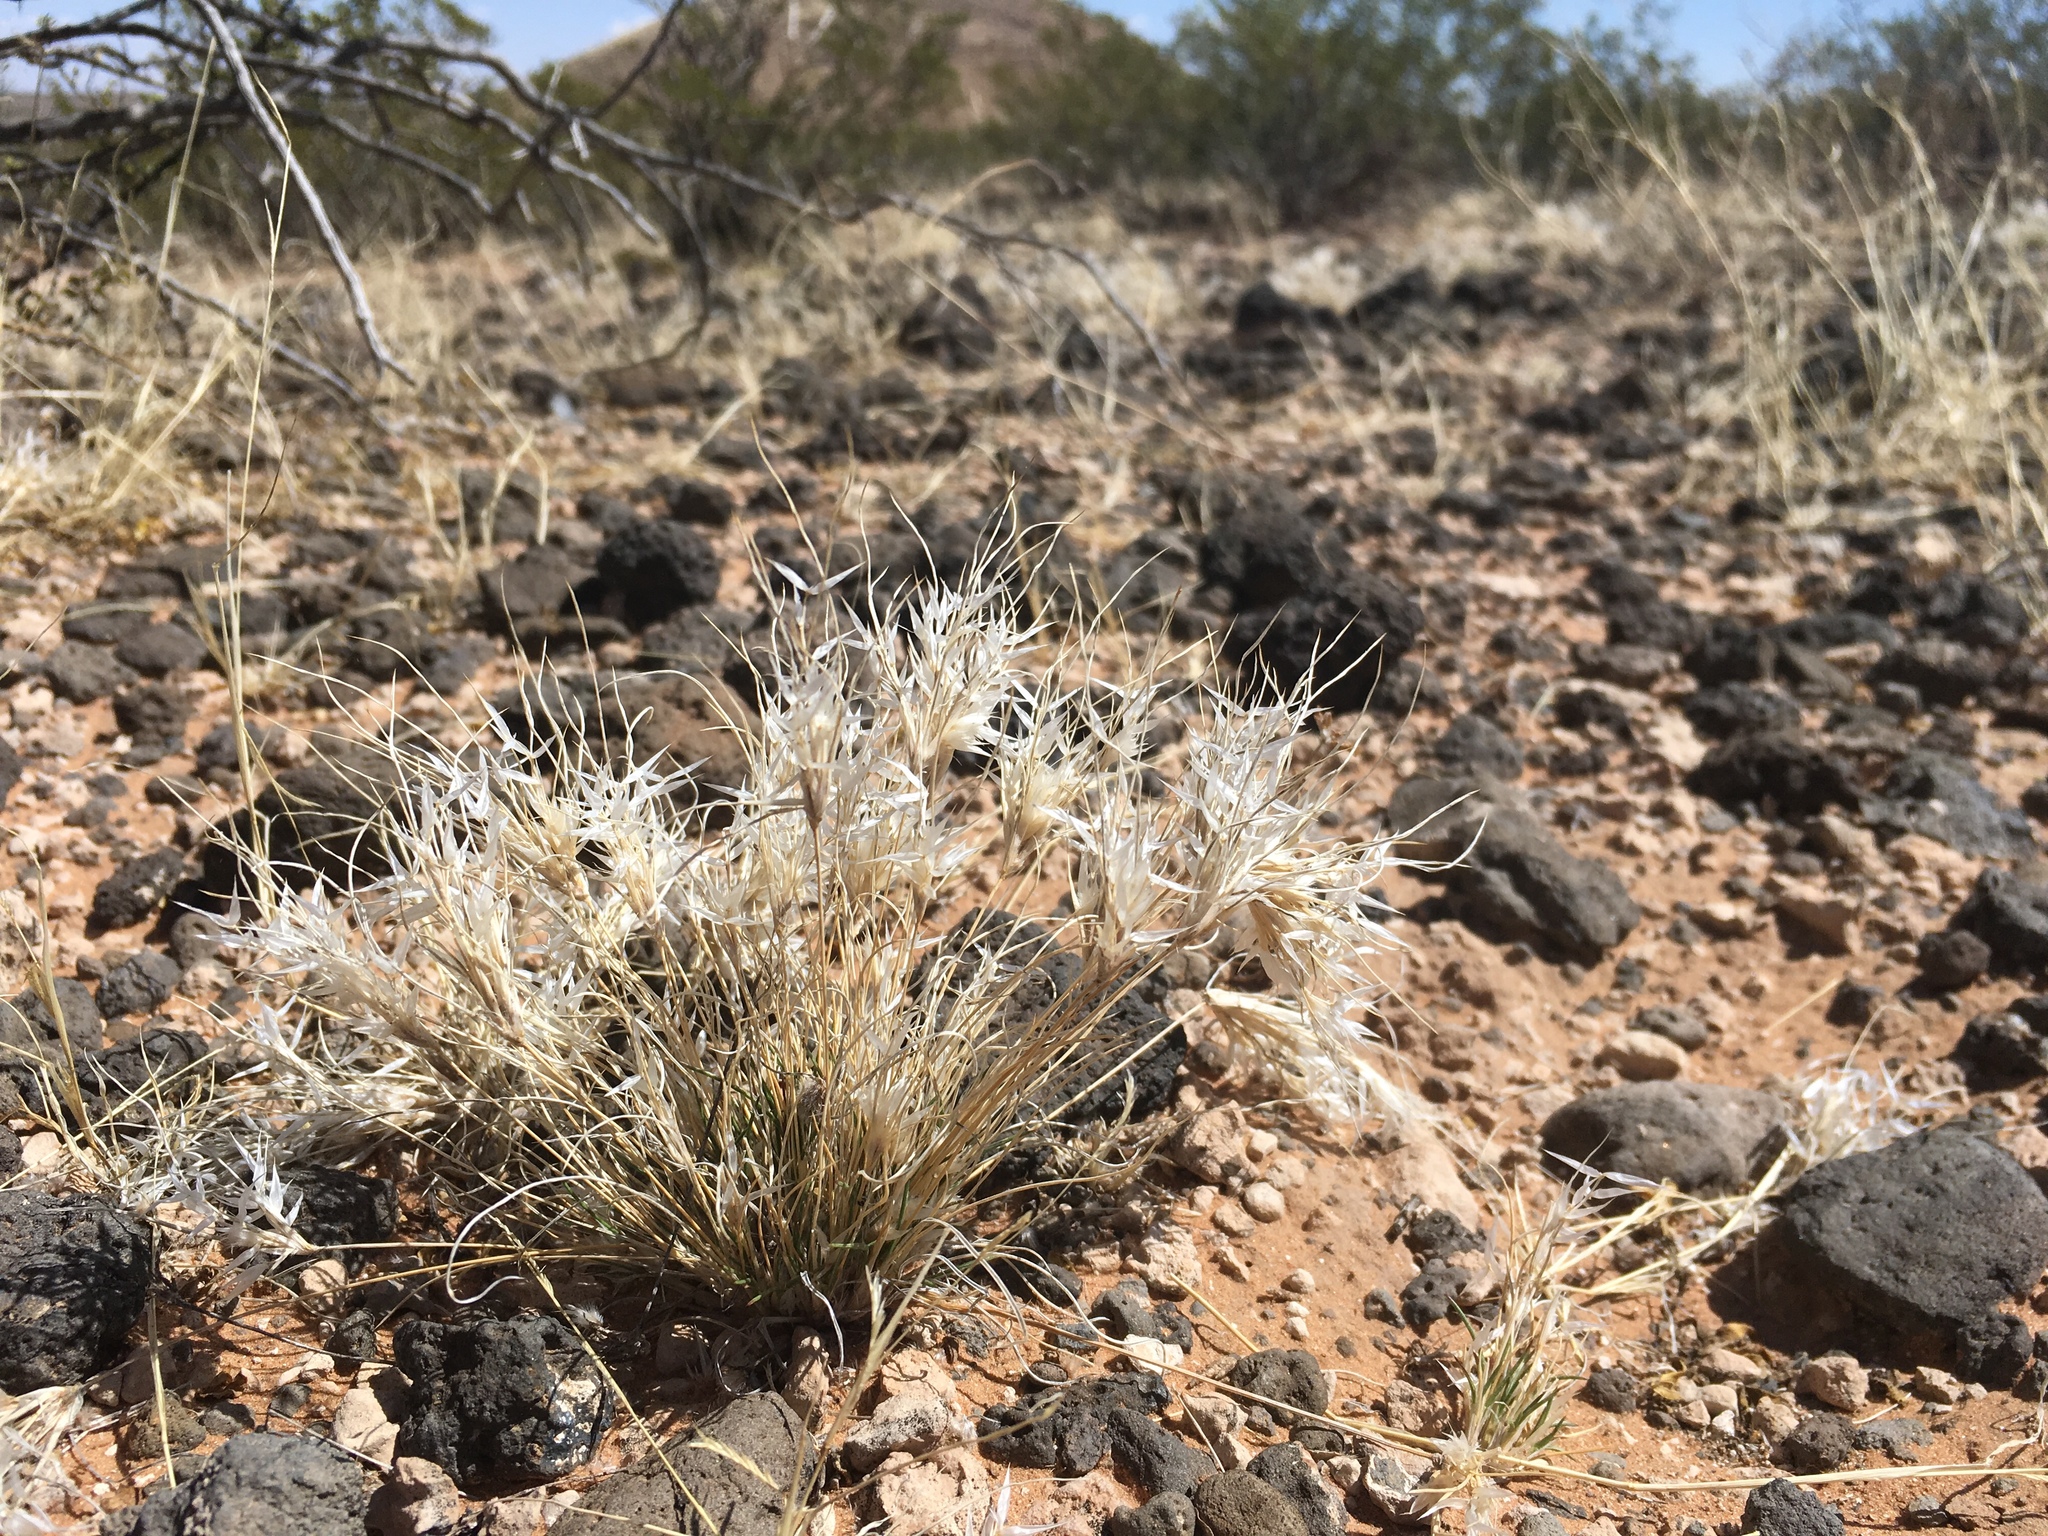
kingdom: Plantae
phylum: Tracheophyta
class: Liliopsida
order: Poales
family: Poaceae
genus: Dasyochloa
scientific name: Dasyochloa pulchella
